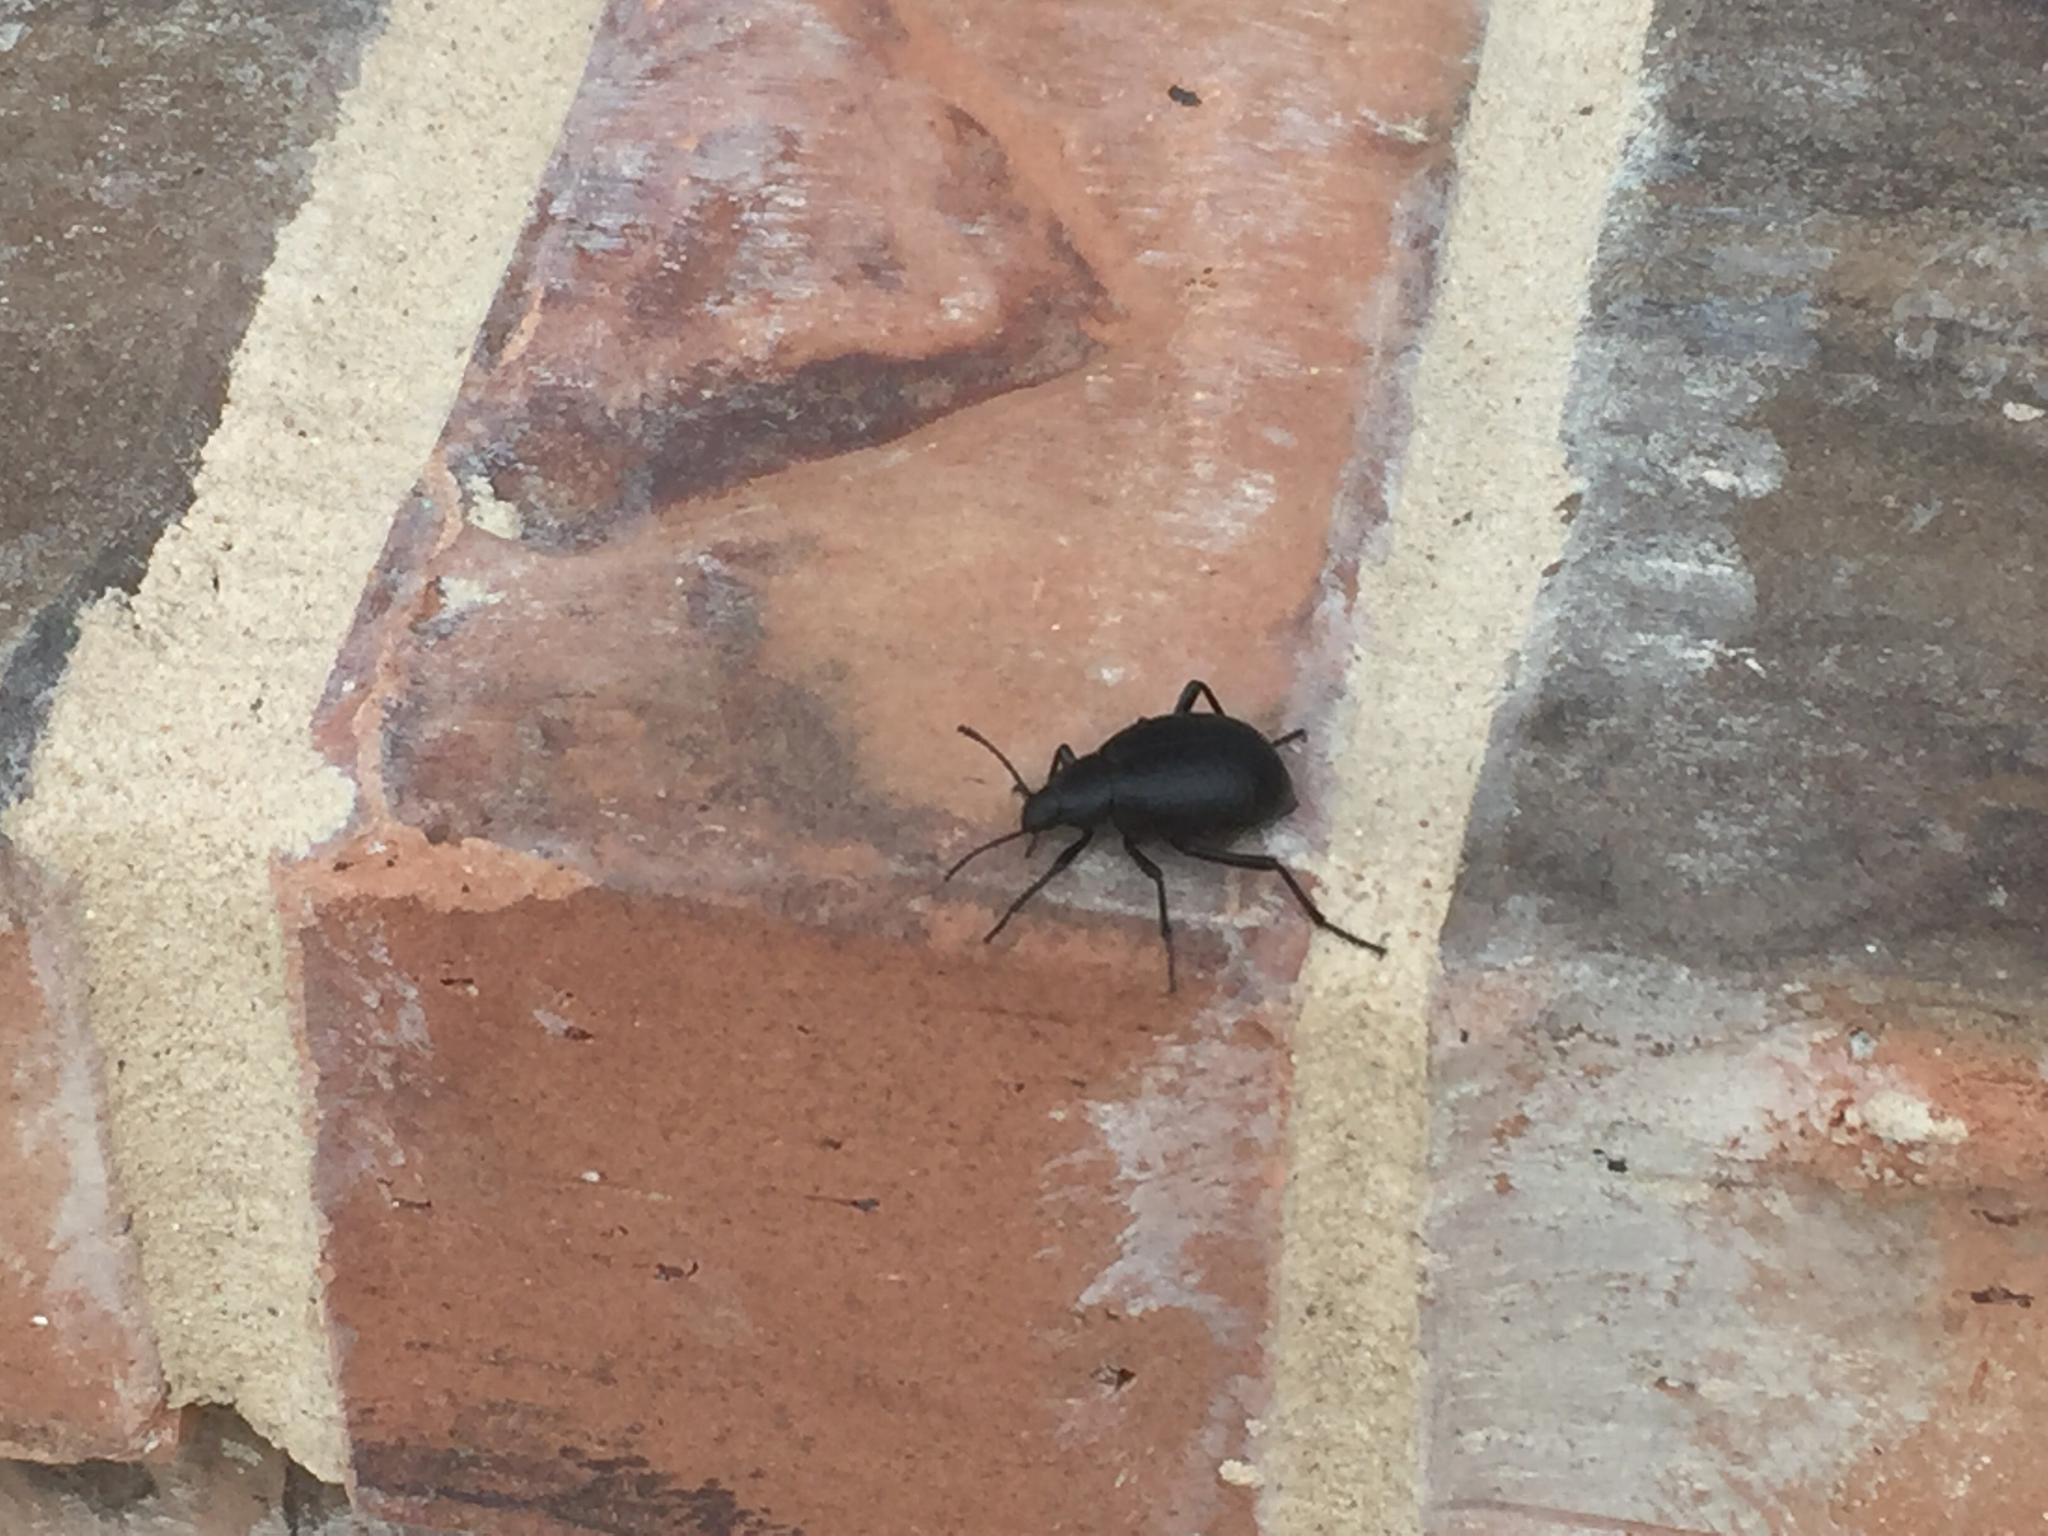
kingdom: Animalia
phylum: Arthropoda
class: Insecta
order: Coleoptera
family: Tenebrionidae
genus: Eleodes
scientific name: Eleodes goryi
